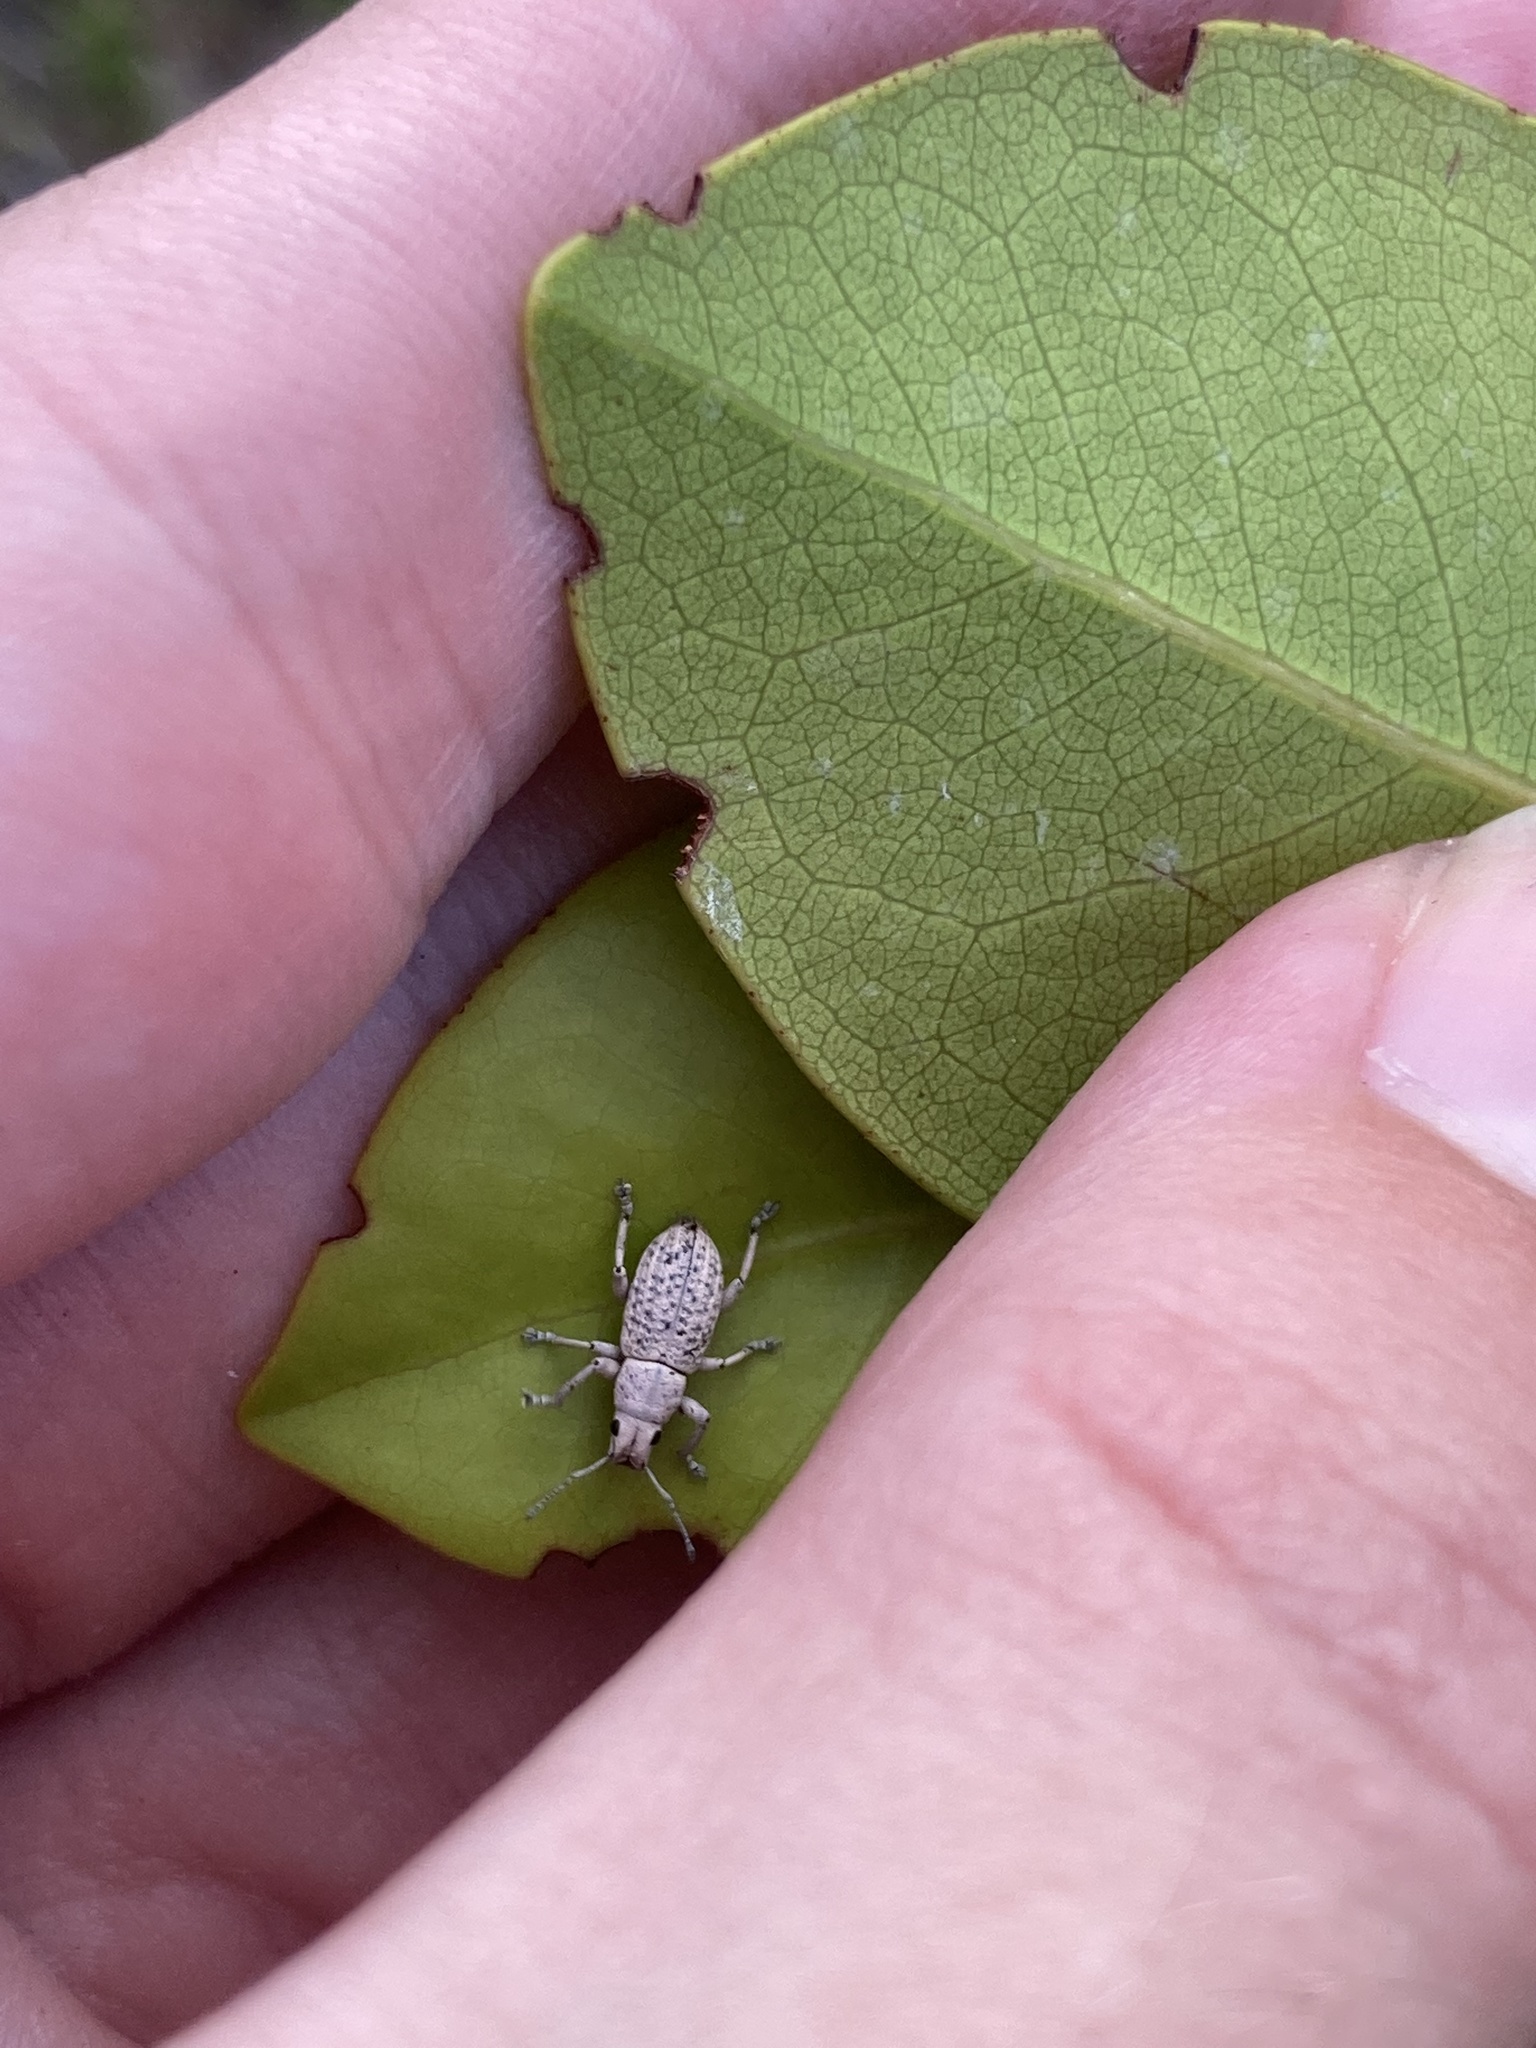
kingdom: Animalia
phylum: Arthropoda
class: Insecta
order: Coleoptera
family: Curculionidae
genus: Artipus
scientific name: Artipus floridanus
